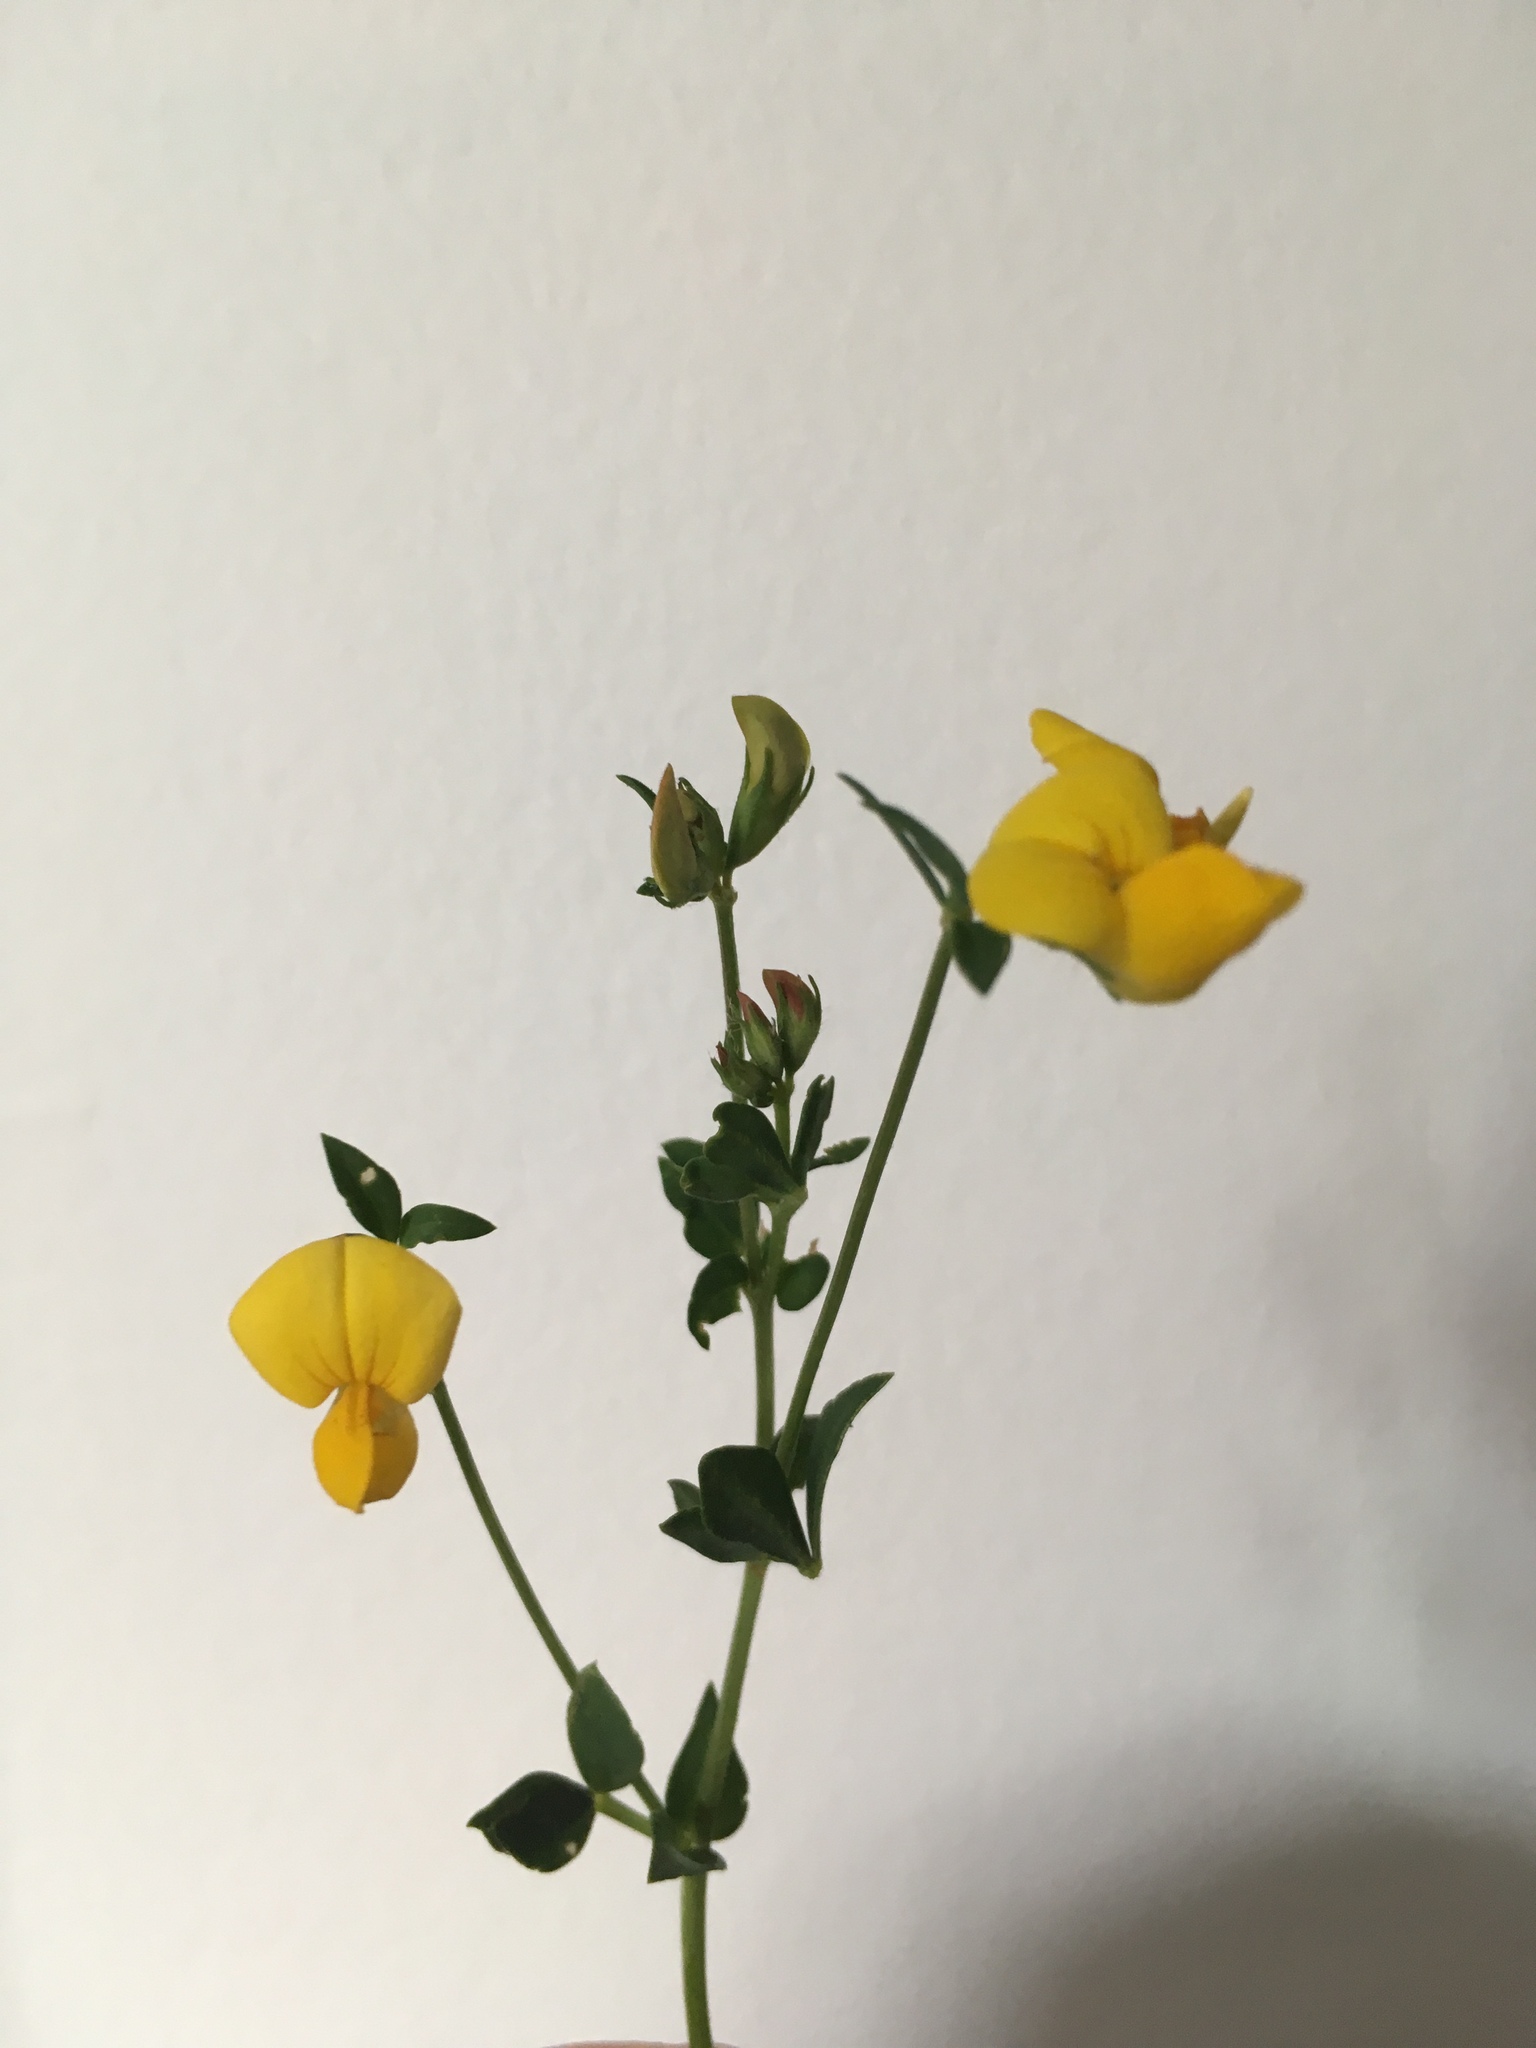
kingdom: Plantae
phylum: Tracheophyta
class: Magnoliopsida
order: Fabales
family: Fabaceae
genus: Lotus
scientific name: Lotus corniculatus
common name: Common bird's-foot-trefoil
